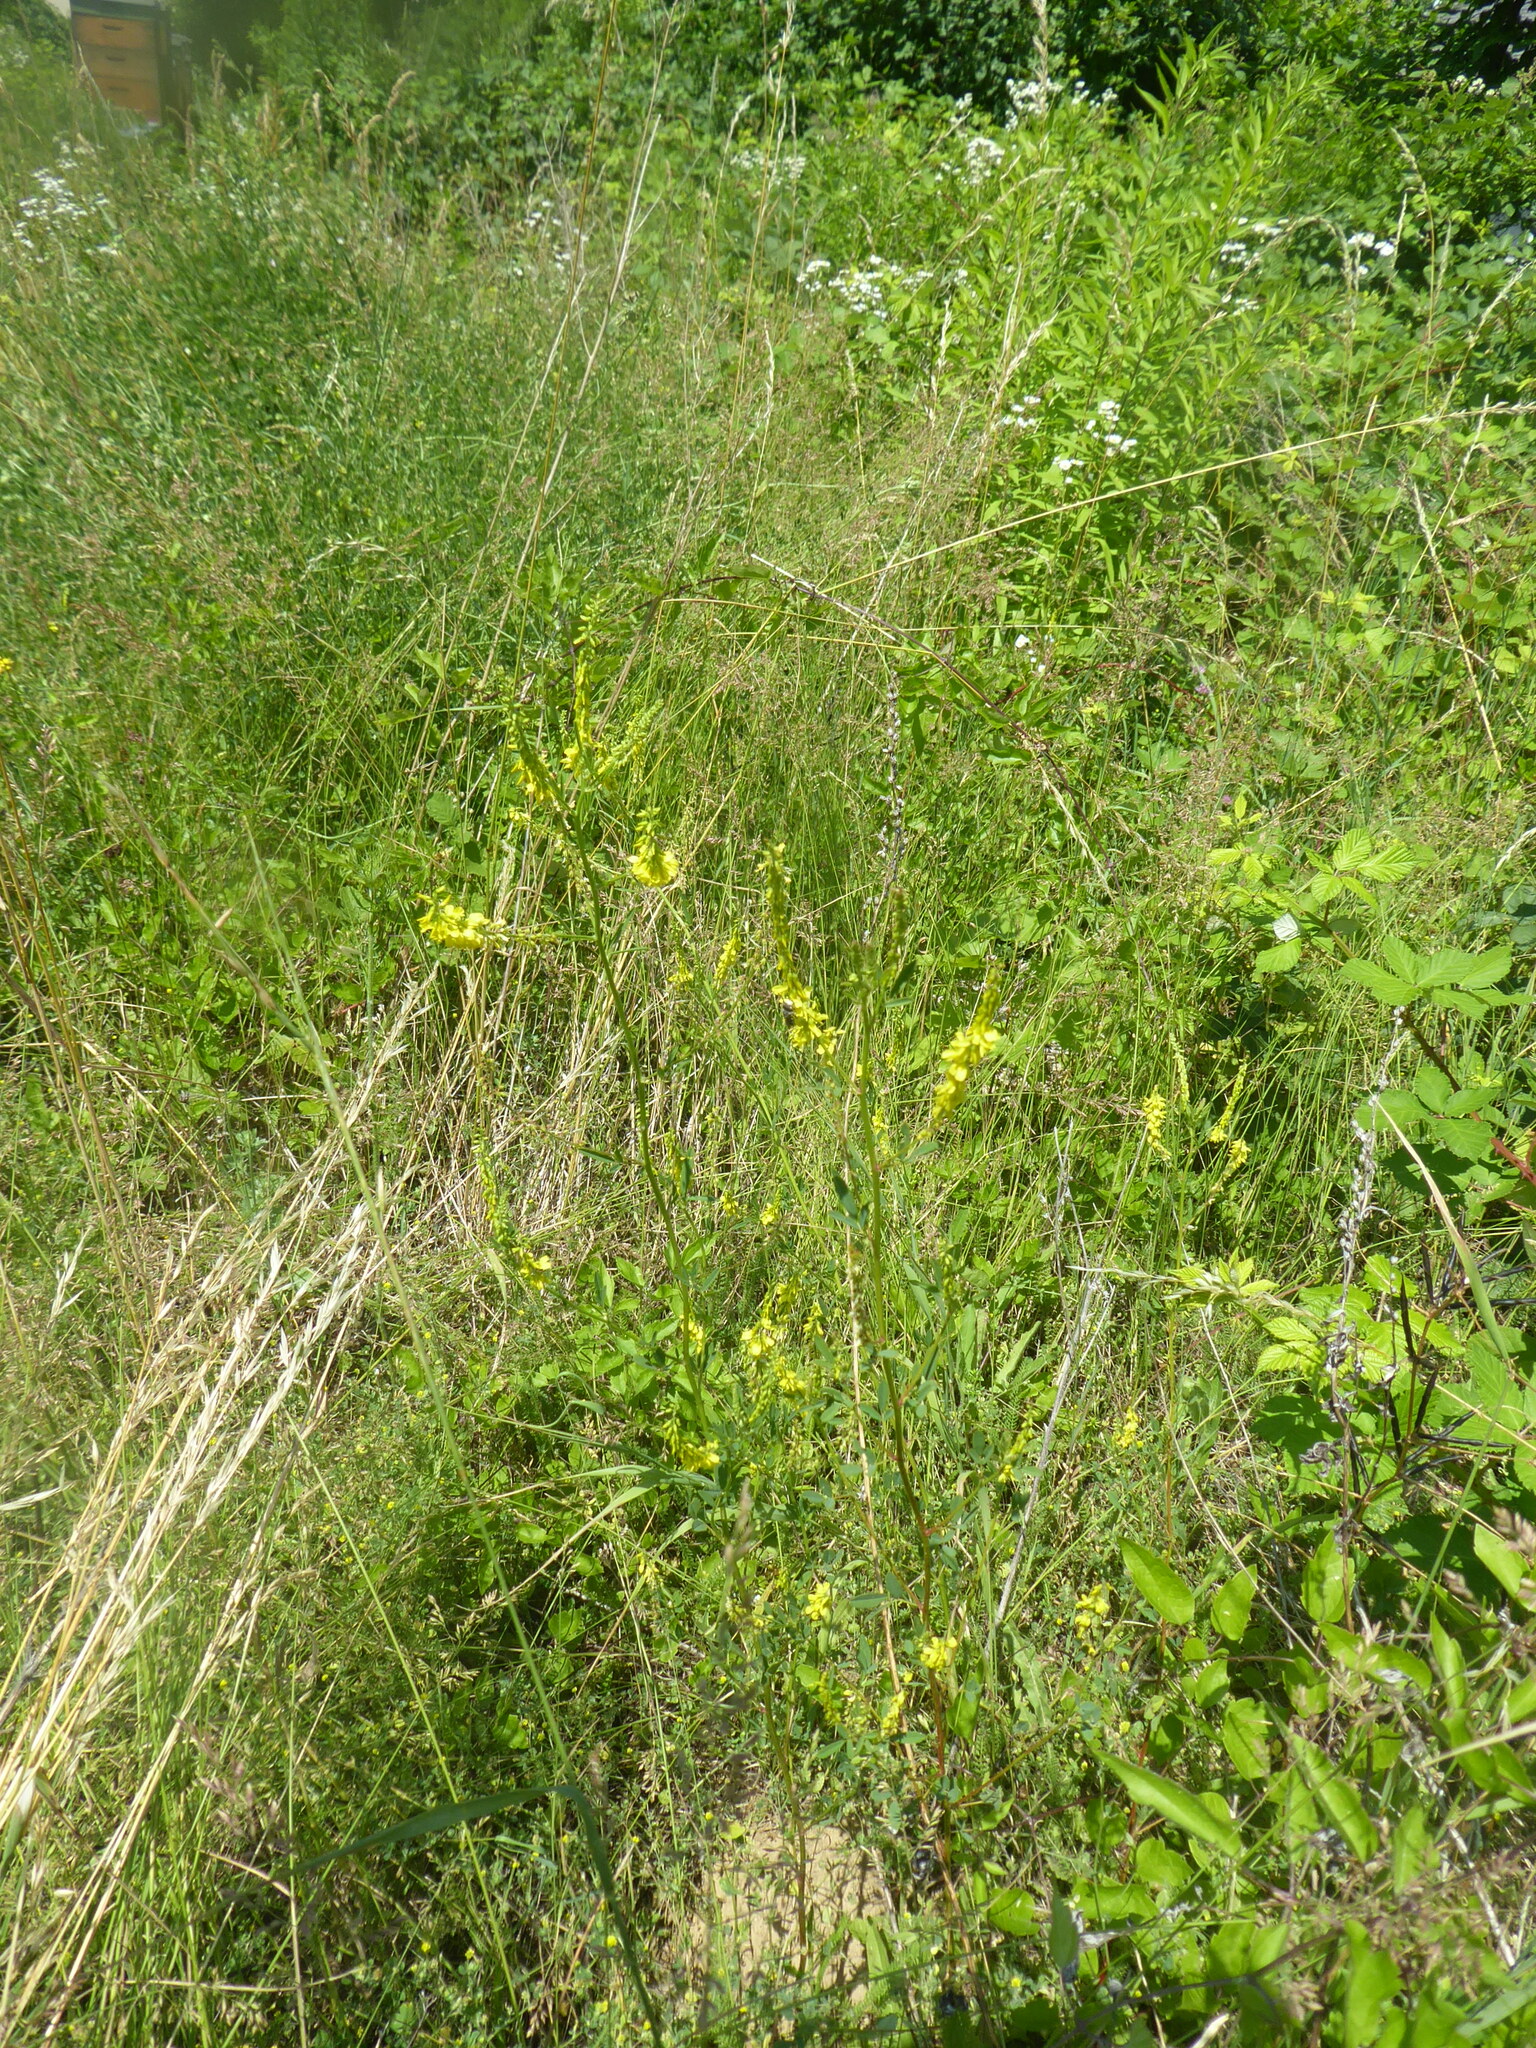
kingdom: Plantae
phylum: Tracheophyta
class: Magnoliopsida
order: Fabales
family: Fabaceae
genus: Melilotus
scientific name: Melilotus officinalis
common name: Sweetclover
